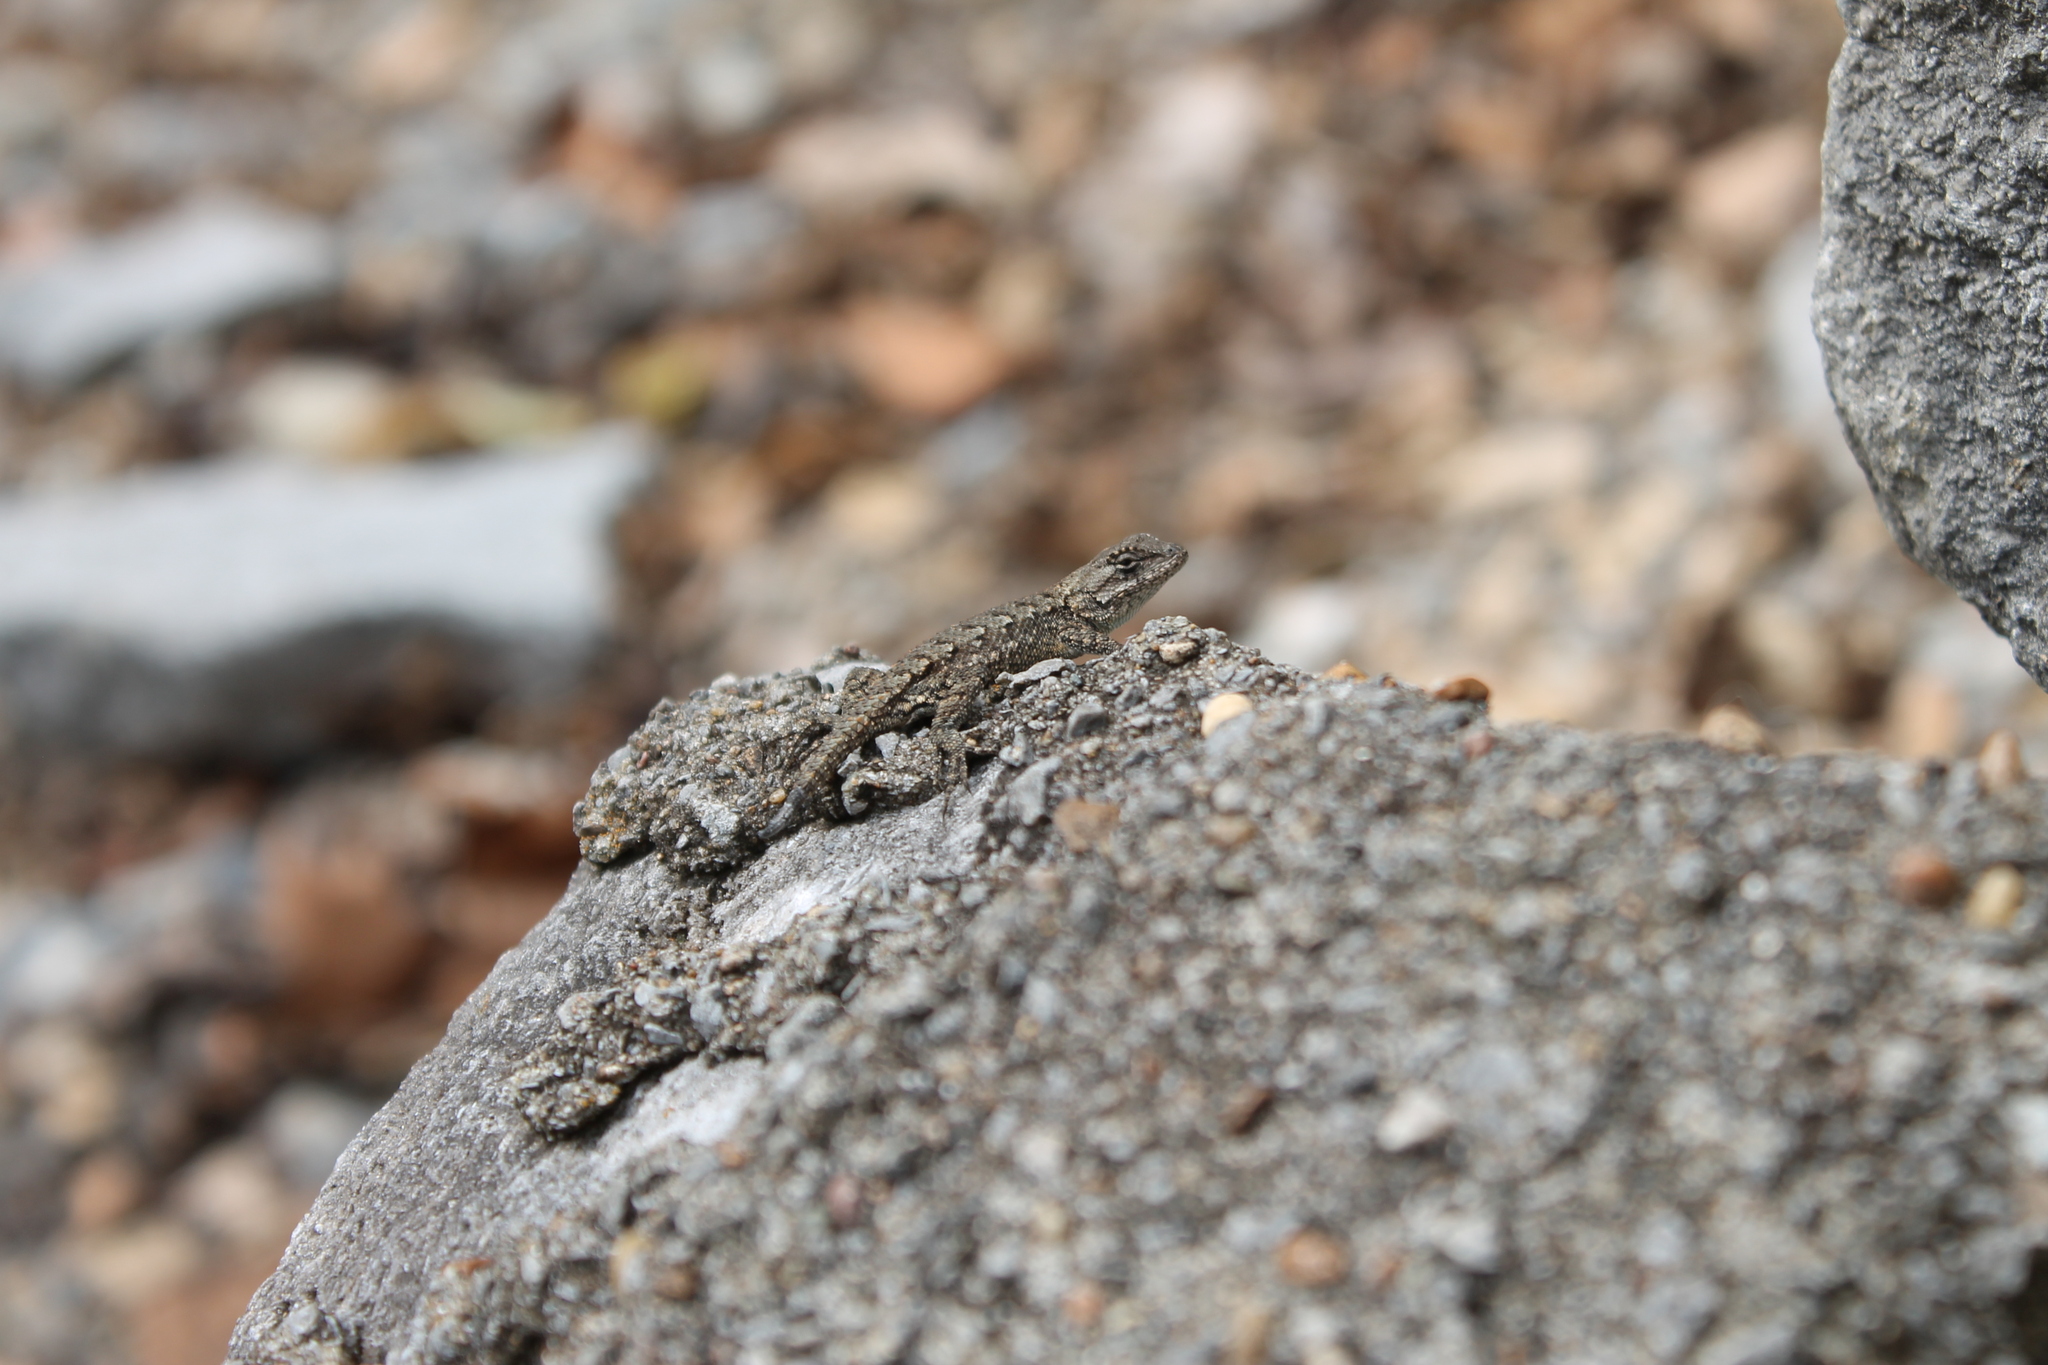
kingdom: Animalia
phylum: Chordata
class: Squamata
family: Phrynosomatidae
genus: Sceloporus
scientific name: Sceloporus undulatus
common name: Eastern fence lizard
